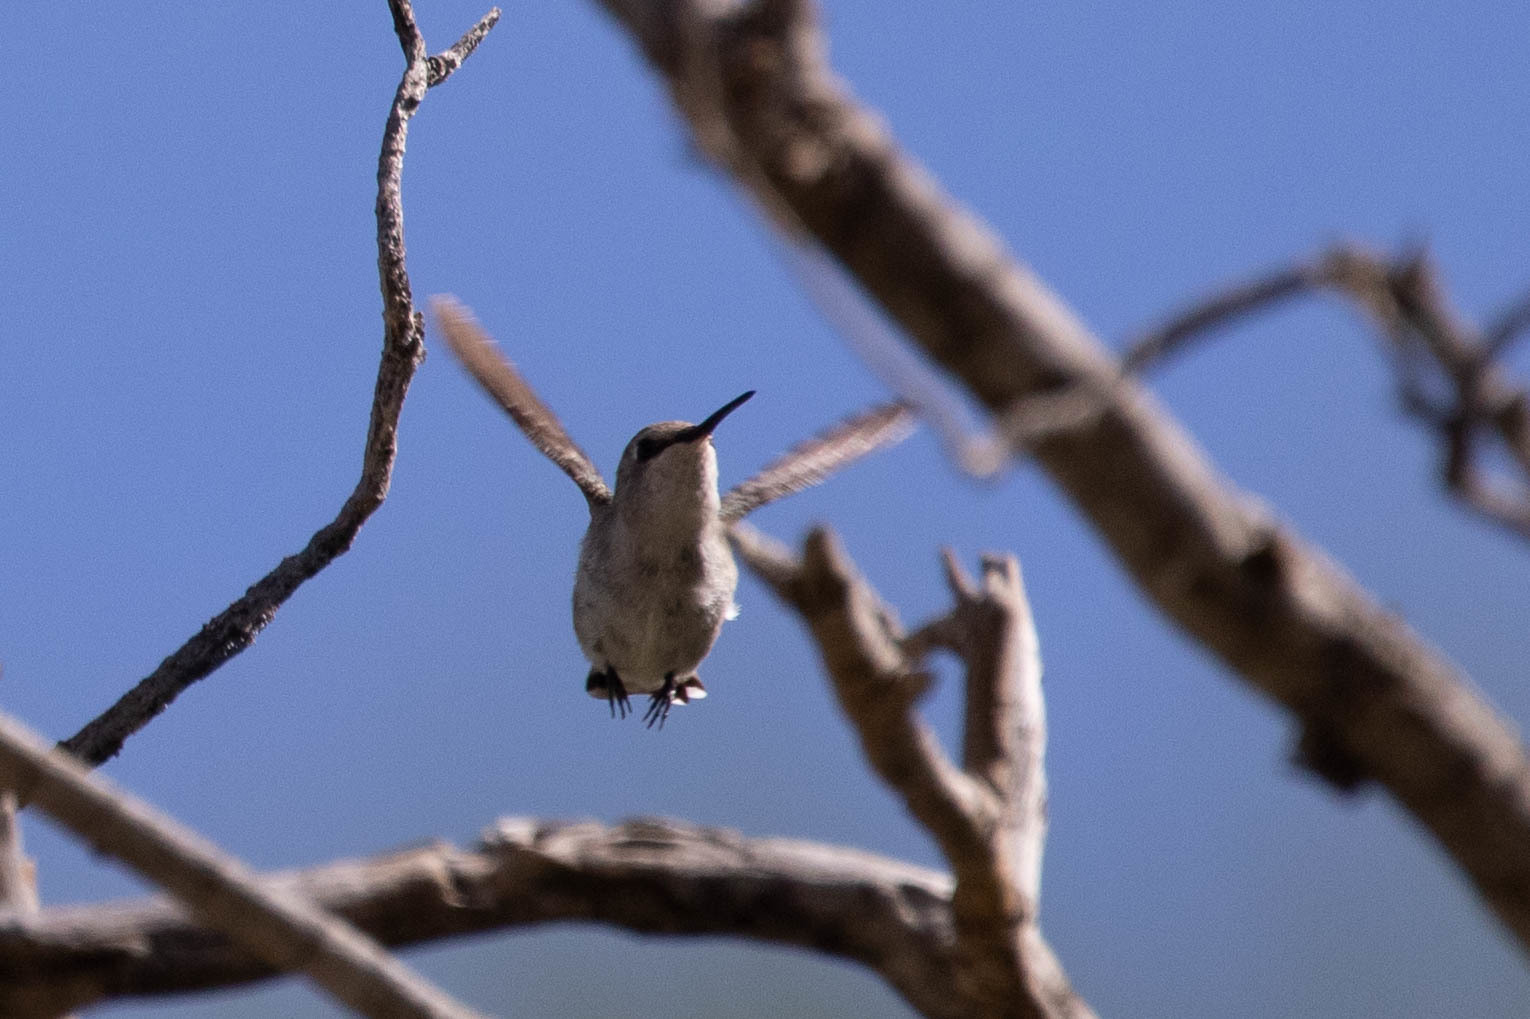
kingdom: Animalia
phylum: Chordata
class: Aves
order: Apodiformes
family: Trochilidae
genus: Calypte
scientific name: Calypte costae
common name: Costa's hummingbird
